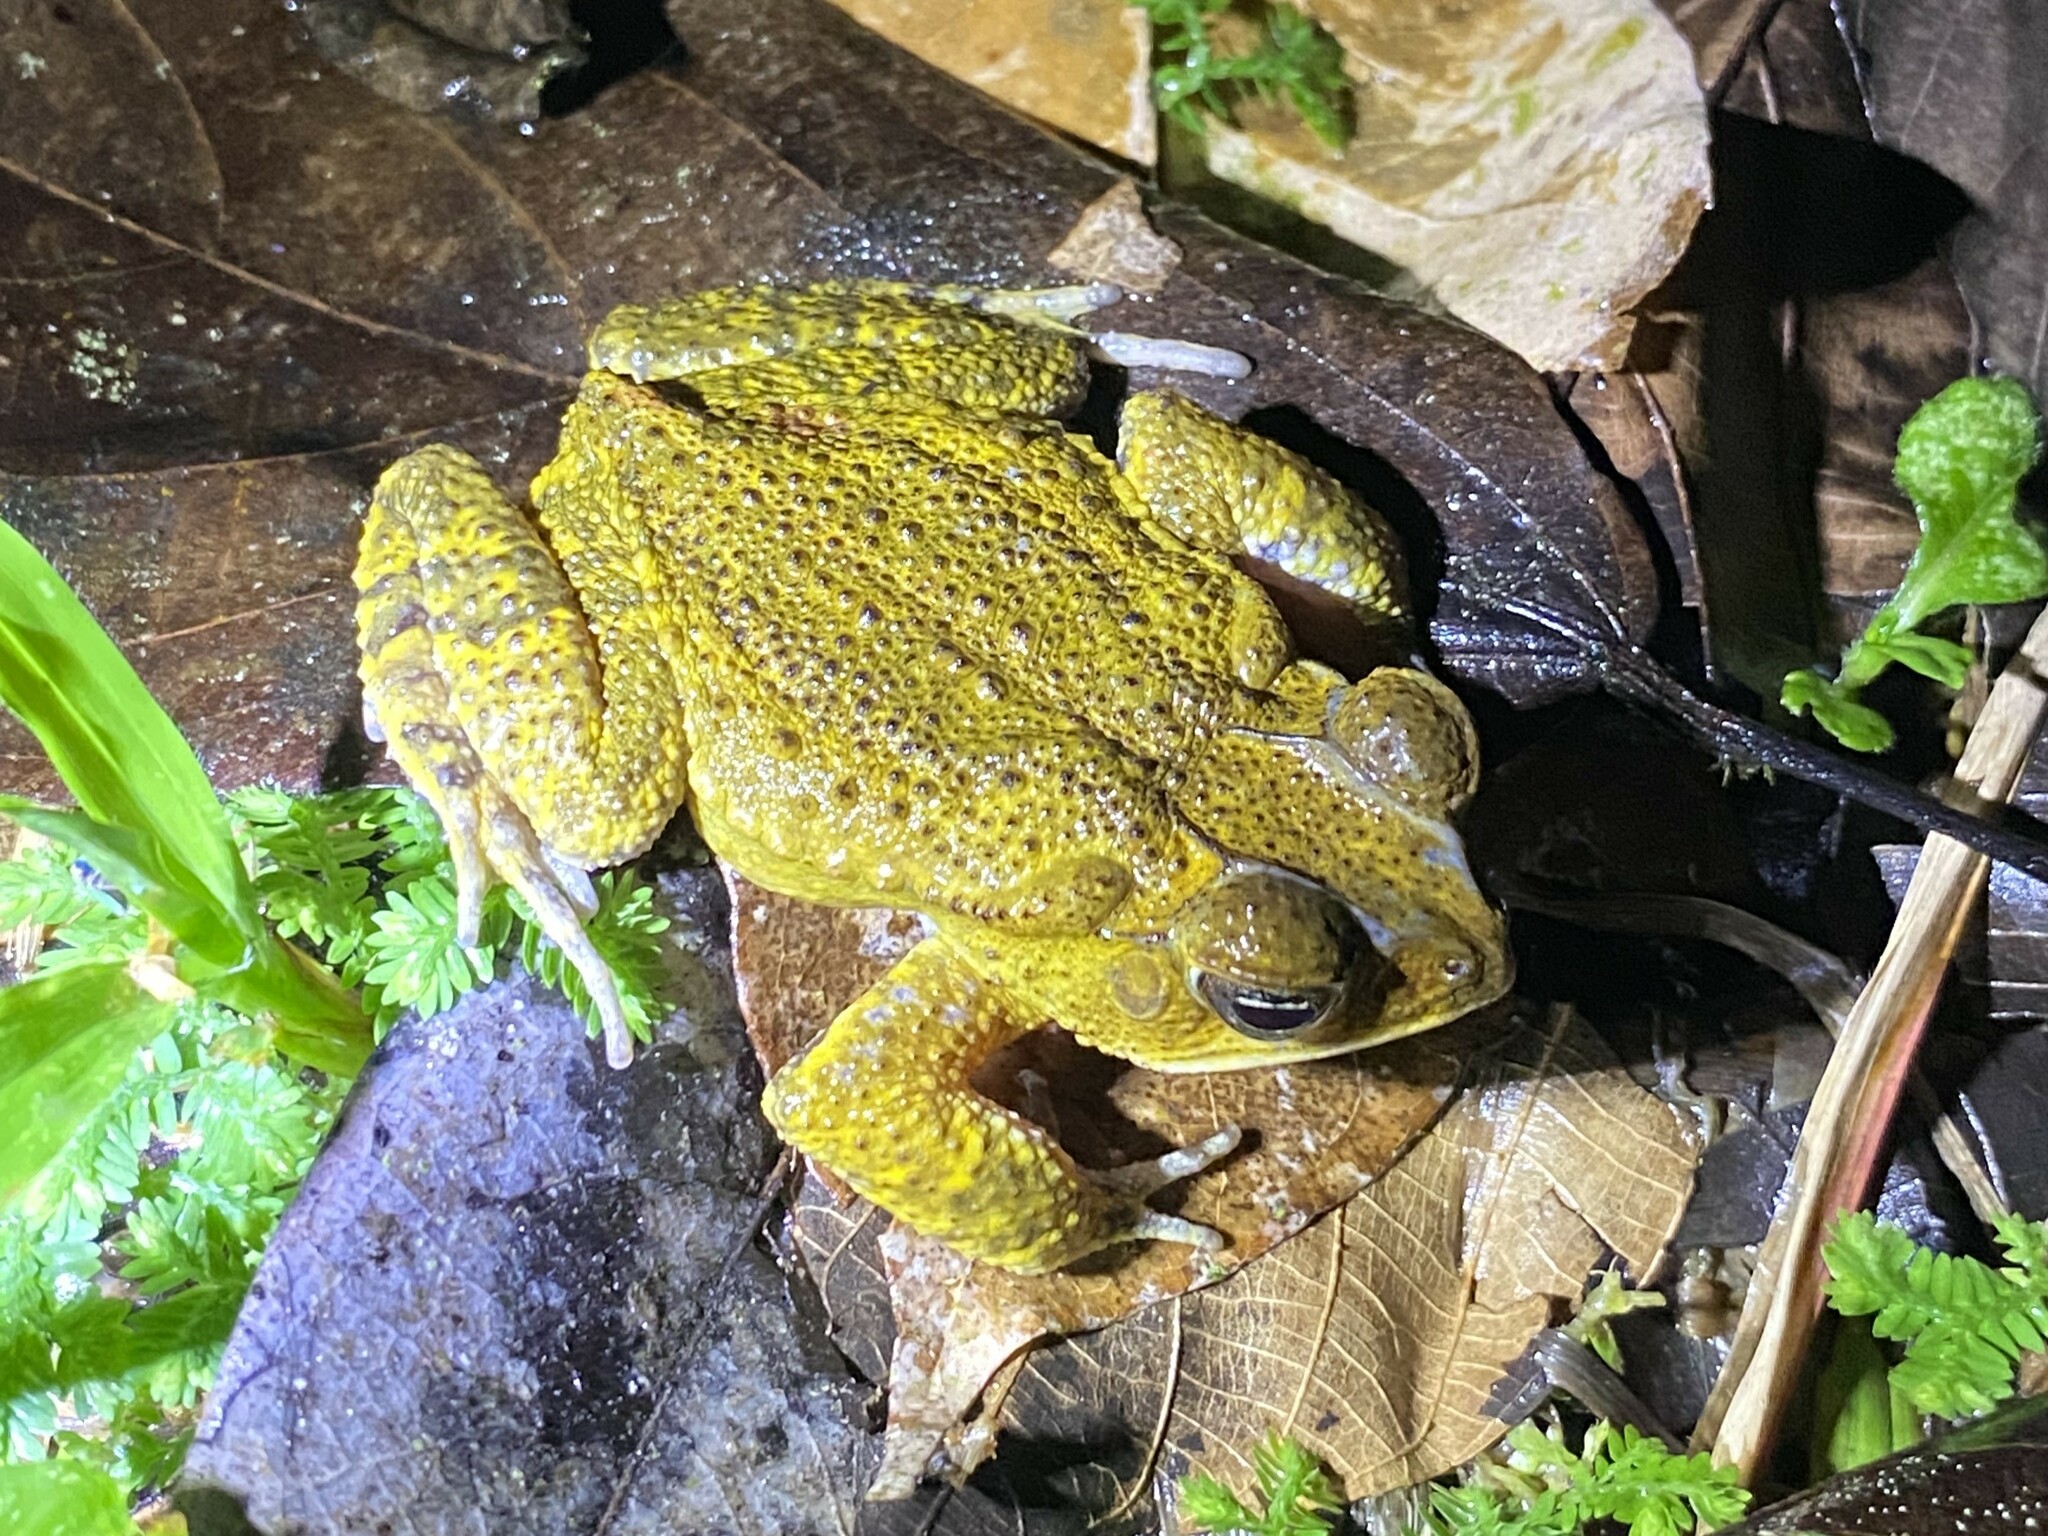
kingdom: Animalia
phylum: Chordata
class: Amphibia
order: Anura
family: Bufonidae
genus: Incilius
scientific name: Incilius aucoinae
